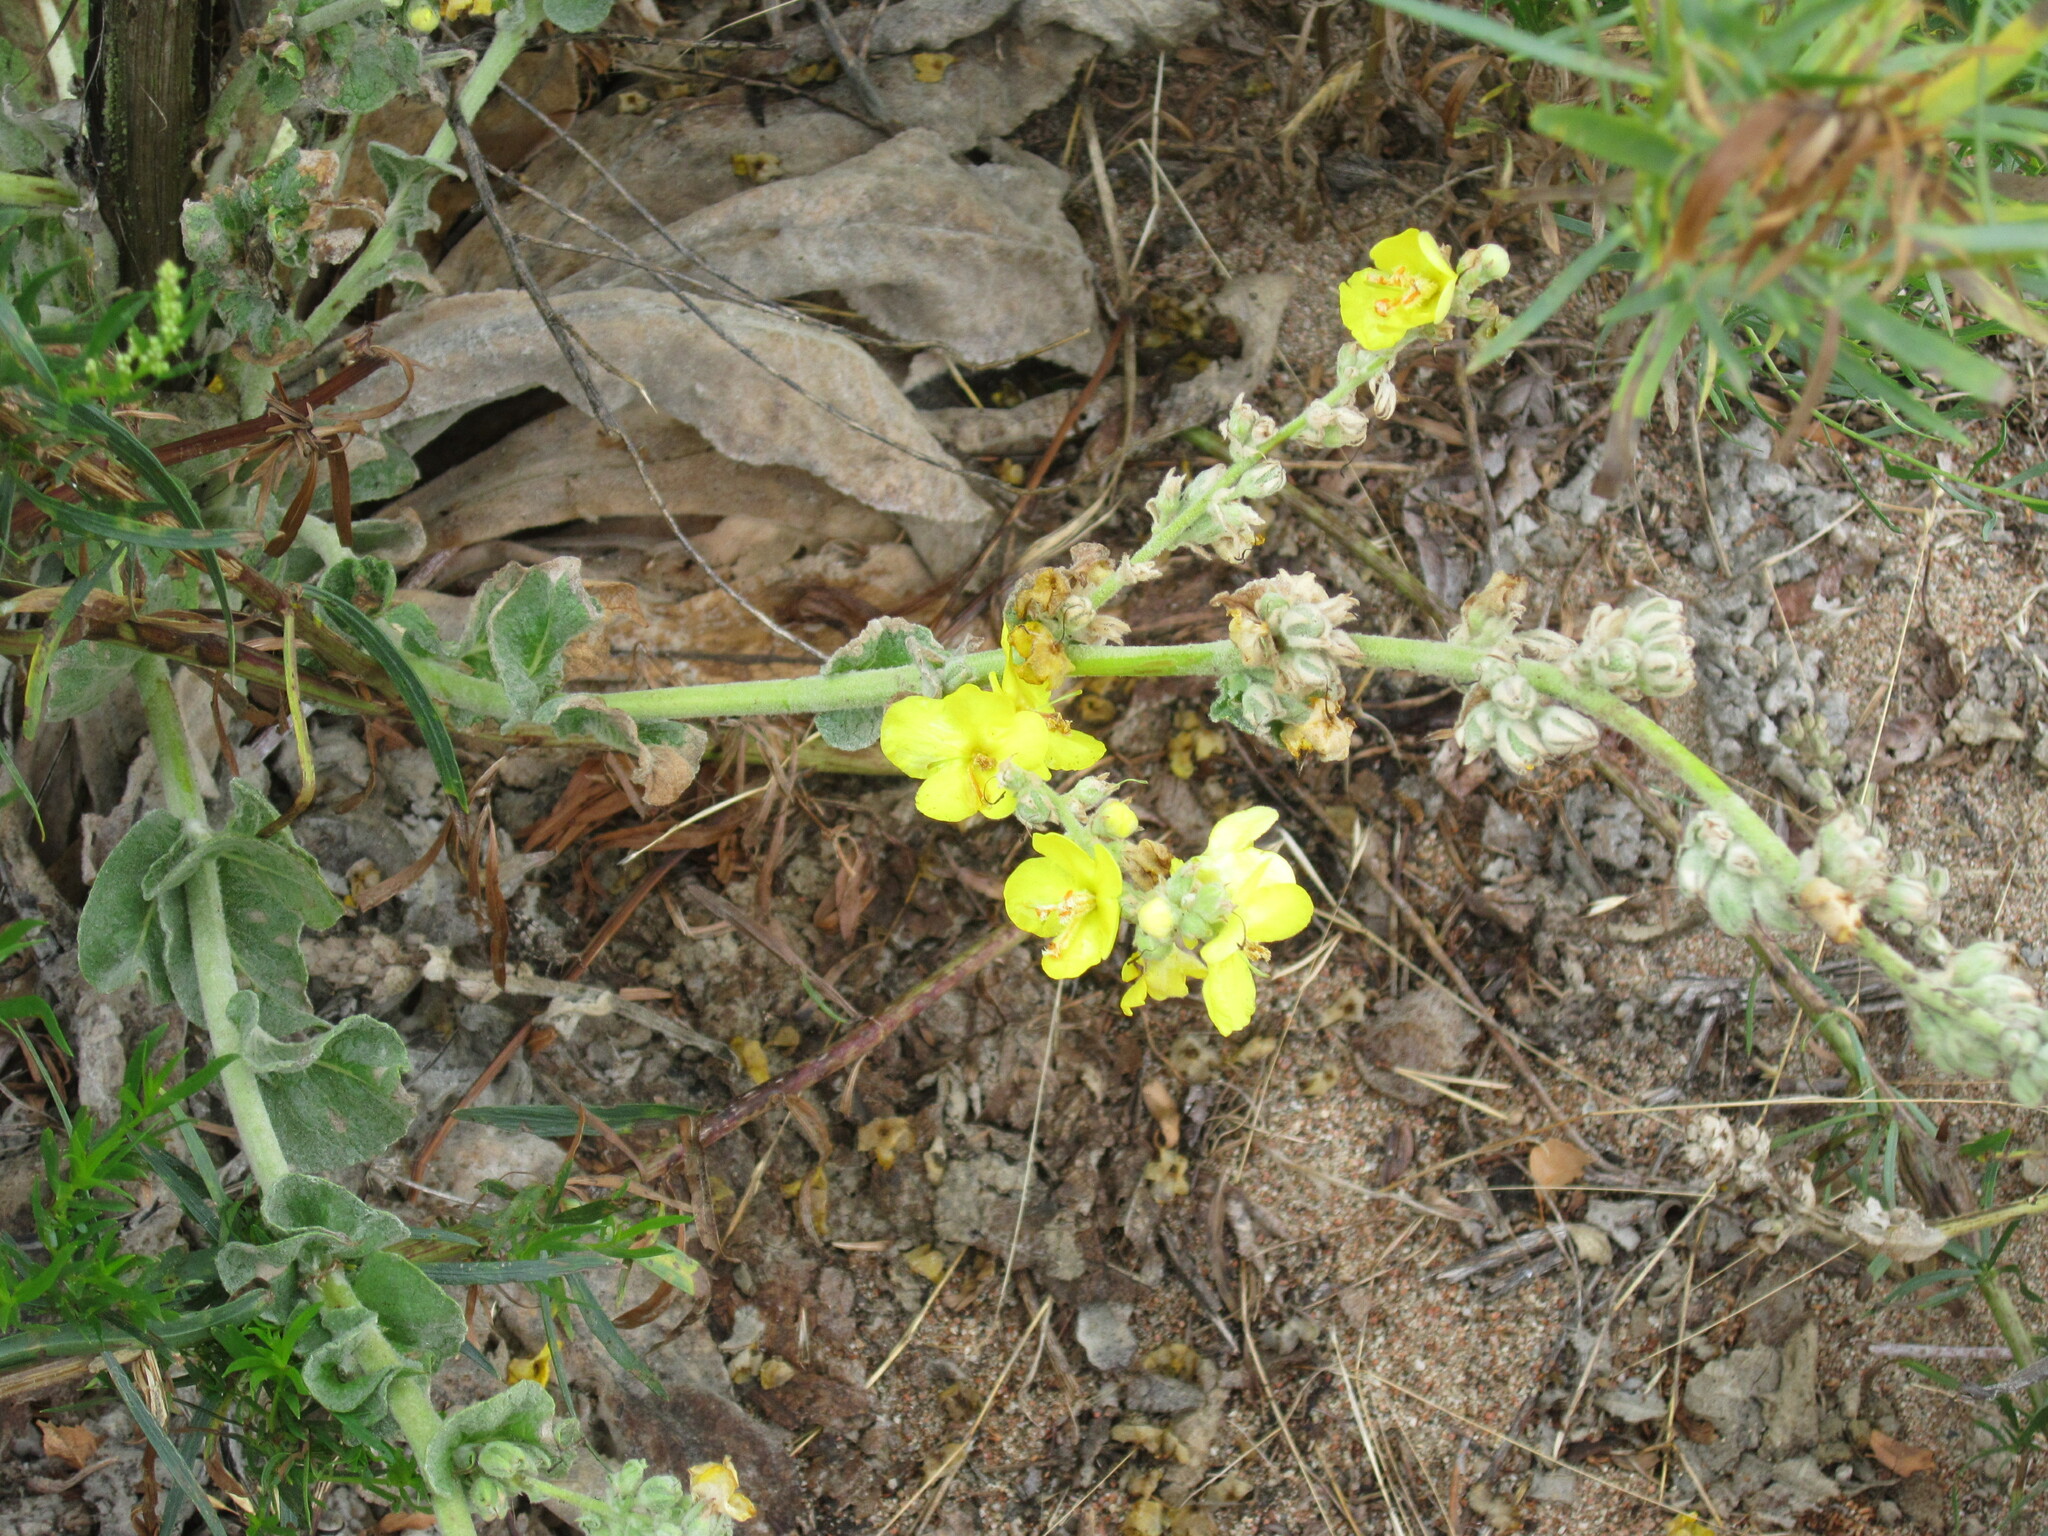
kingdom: Plantae
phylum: Tracheophyta
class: Magnoliopsida
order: Lamiales
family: Scrophulariaceae
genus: Verbascum
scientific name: Verbascum songaricum
